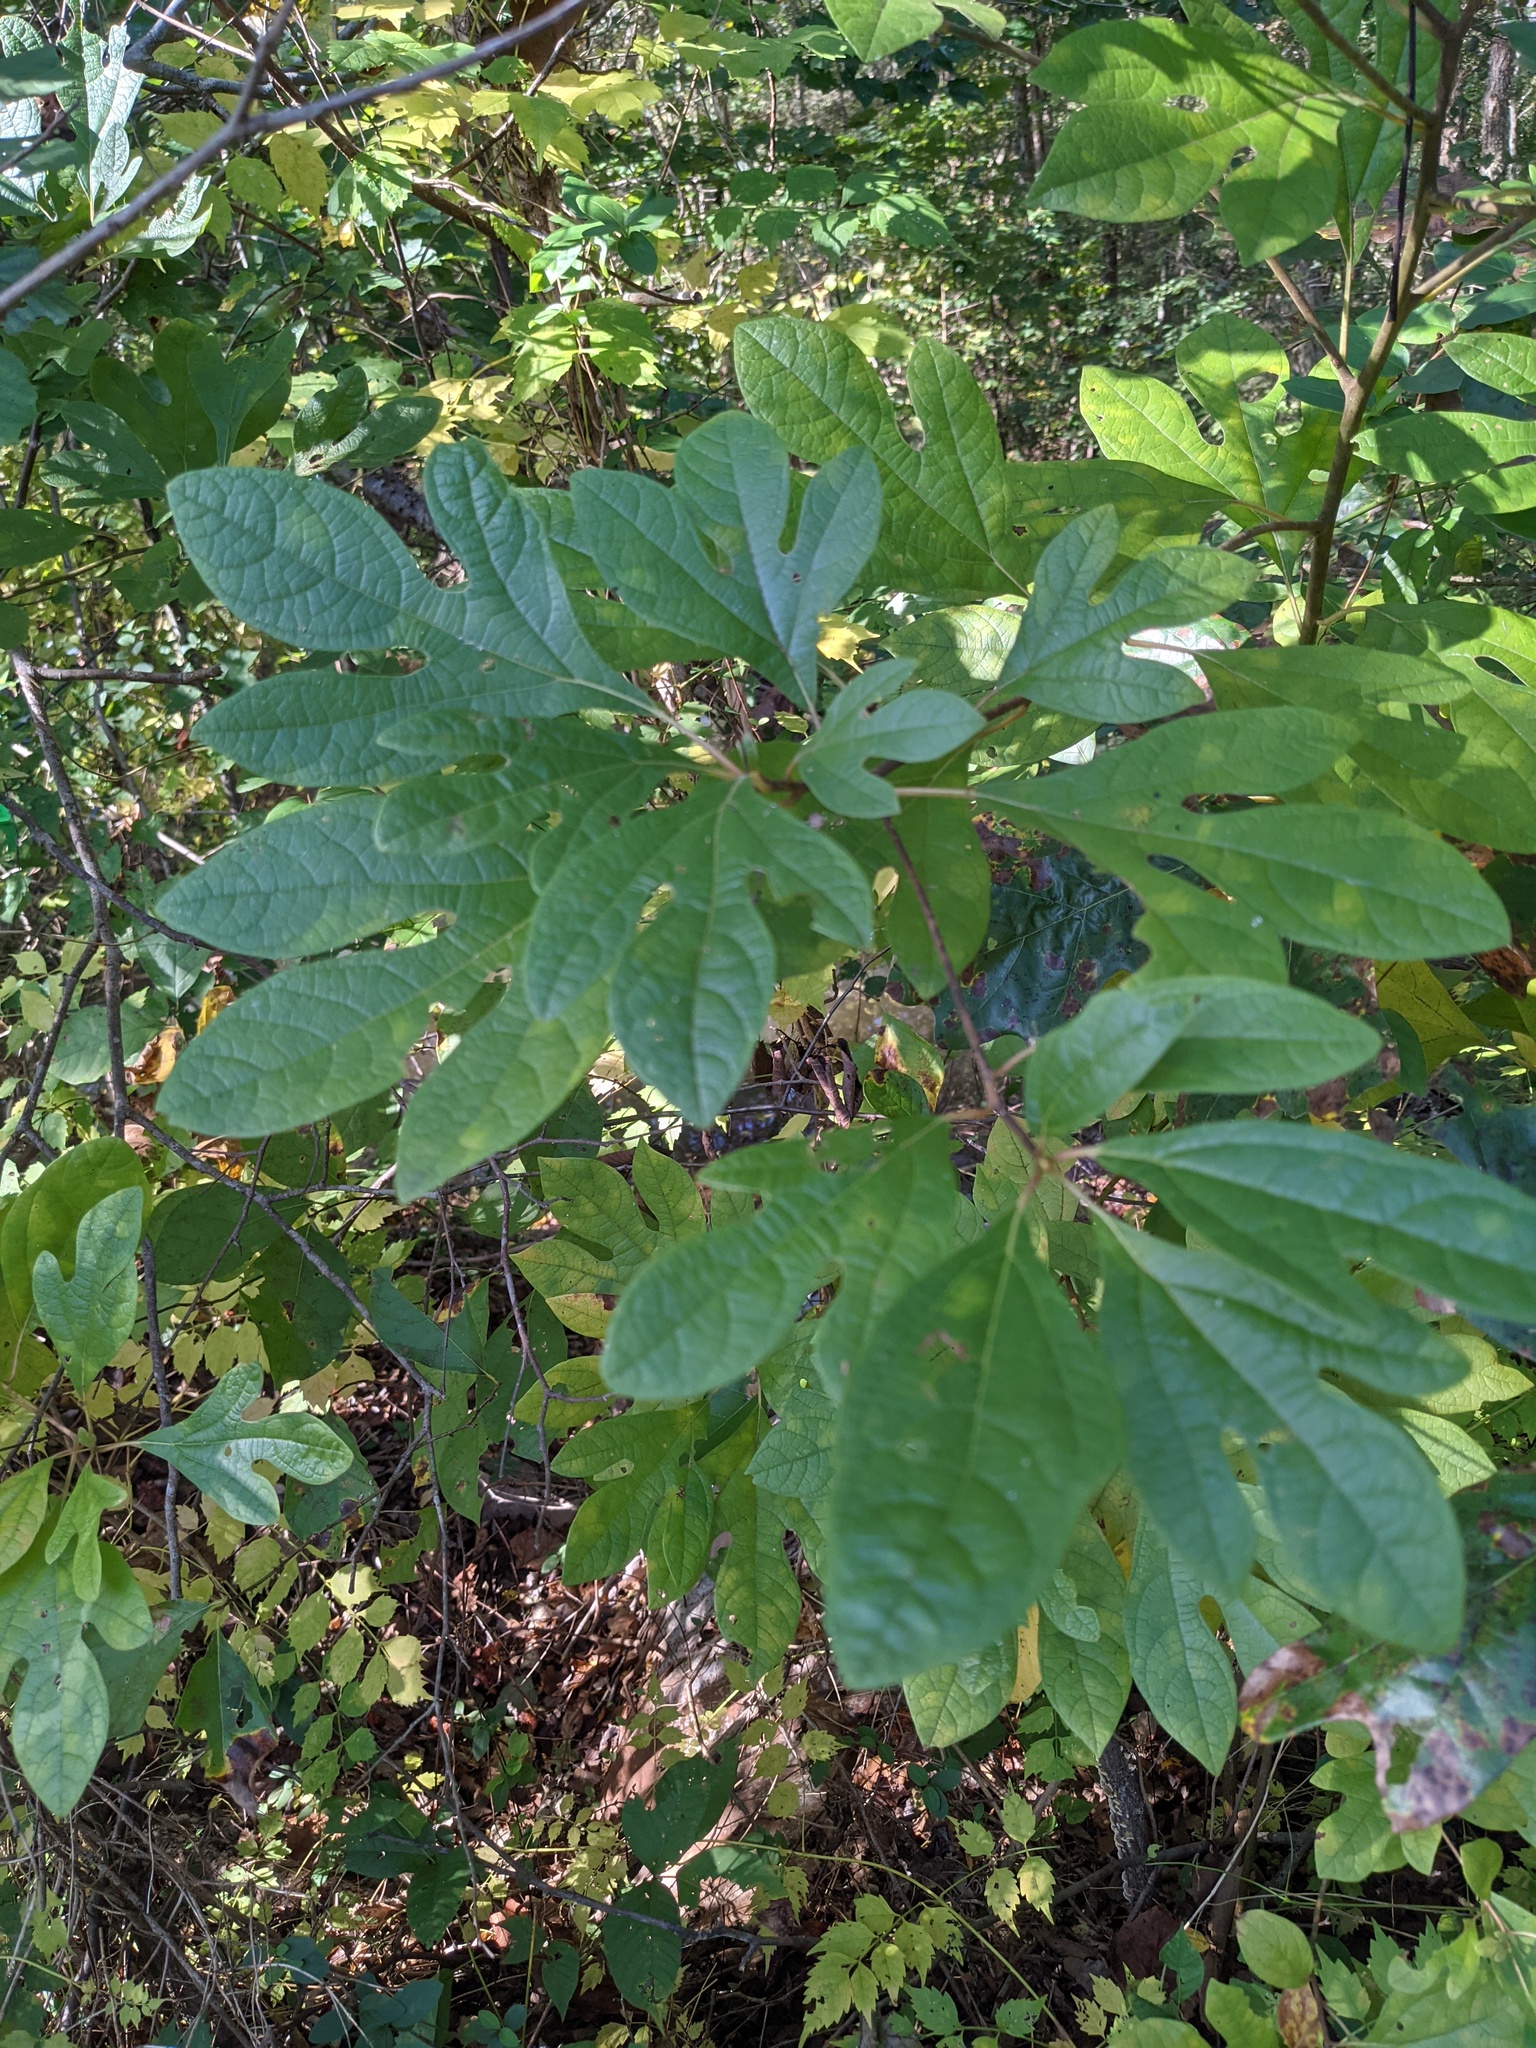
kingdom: Plantae
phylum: Tracheophyta
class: Magnoliopsida
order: Laurales
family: Lauraceae
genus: Sassafras
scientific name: Sassafras albidum
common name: Sassafras
